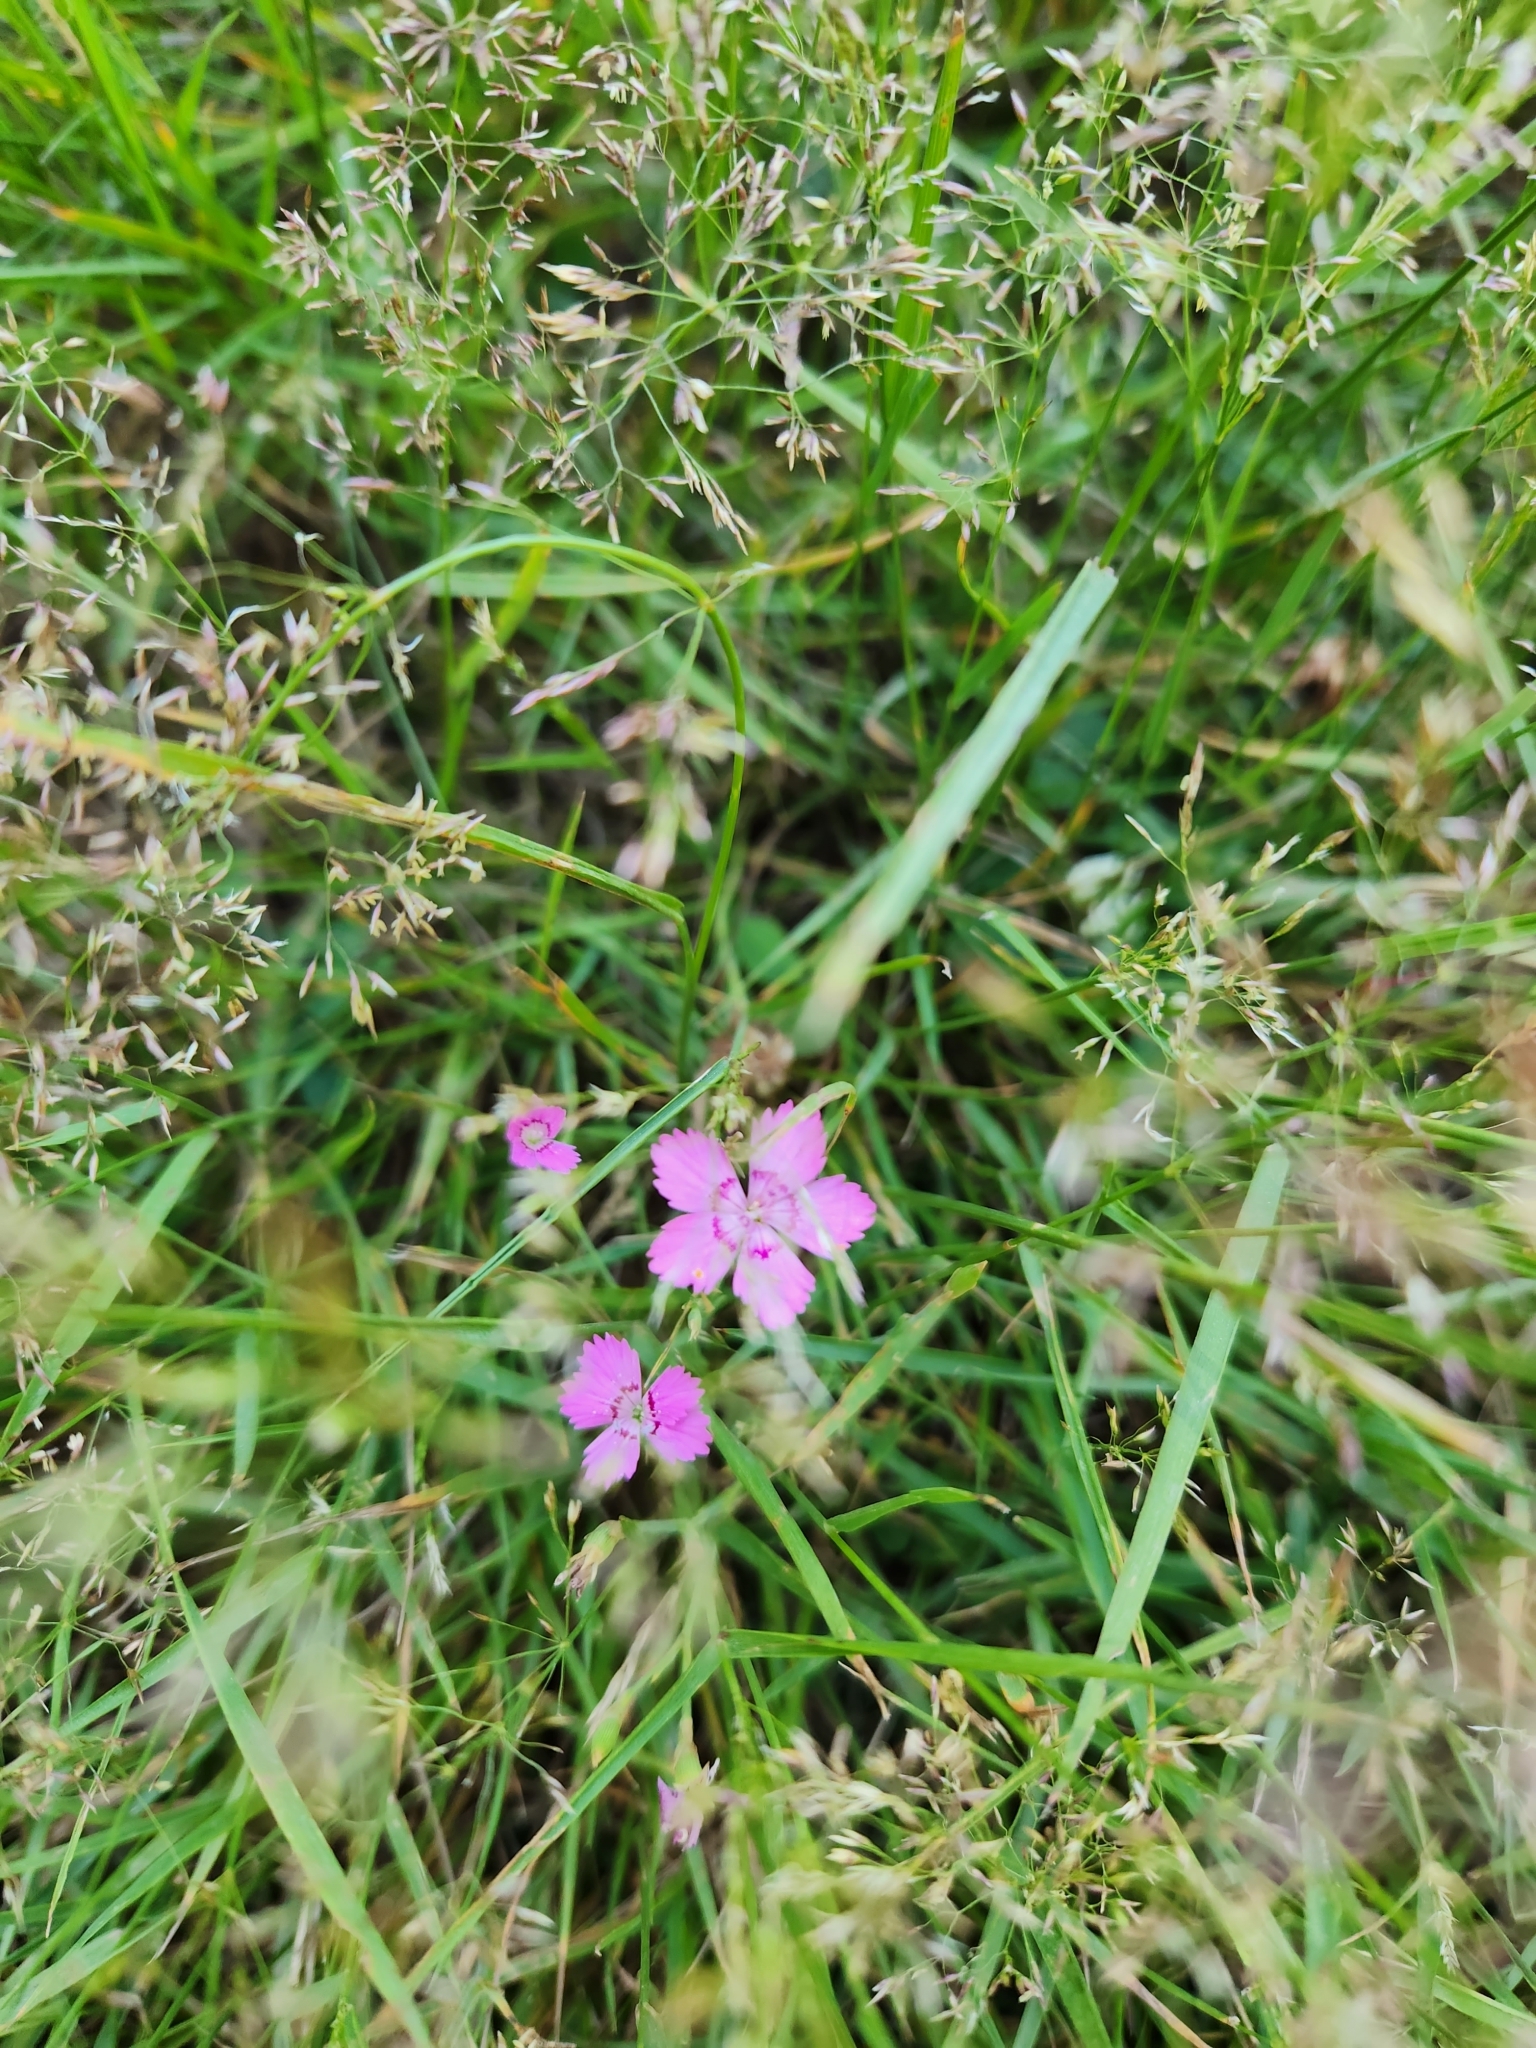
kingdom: Plantae
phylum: Tracheophyta
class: Magnoliopsida
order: Caryophyllales
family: Caryophyllaceae
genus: Dianthus
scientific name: Dianthus deltoides
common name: Maiden pink
